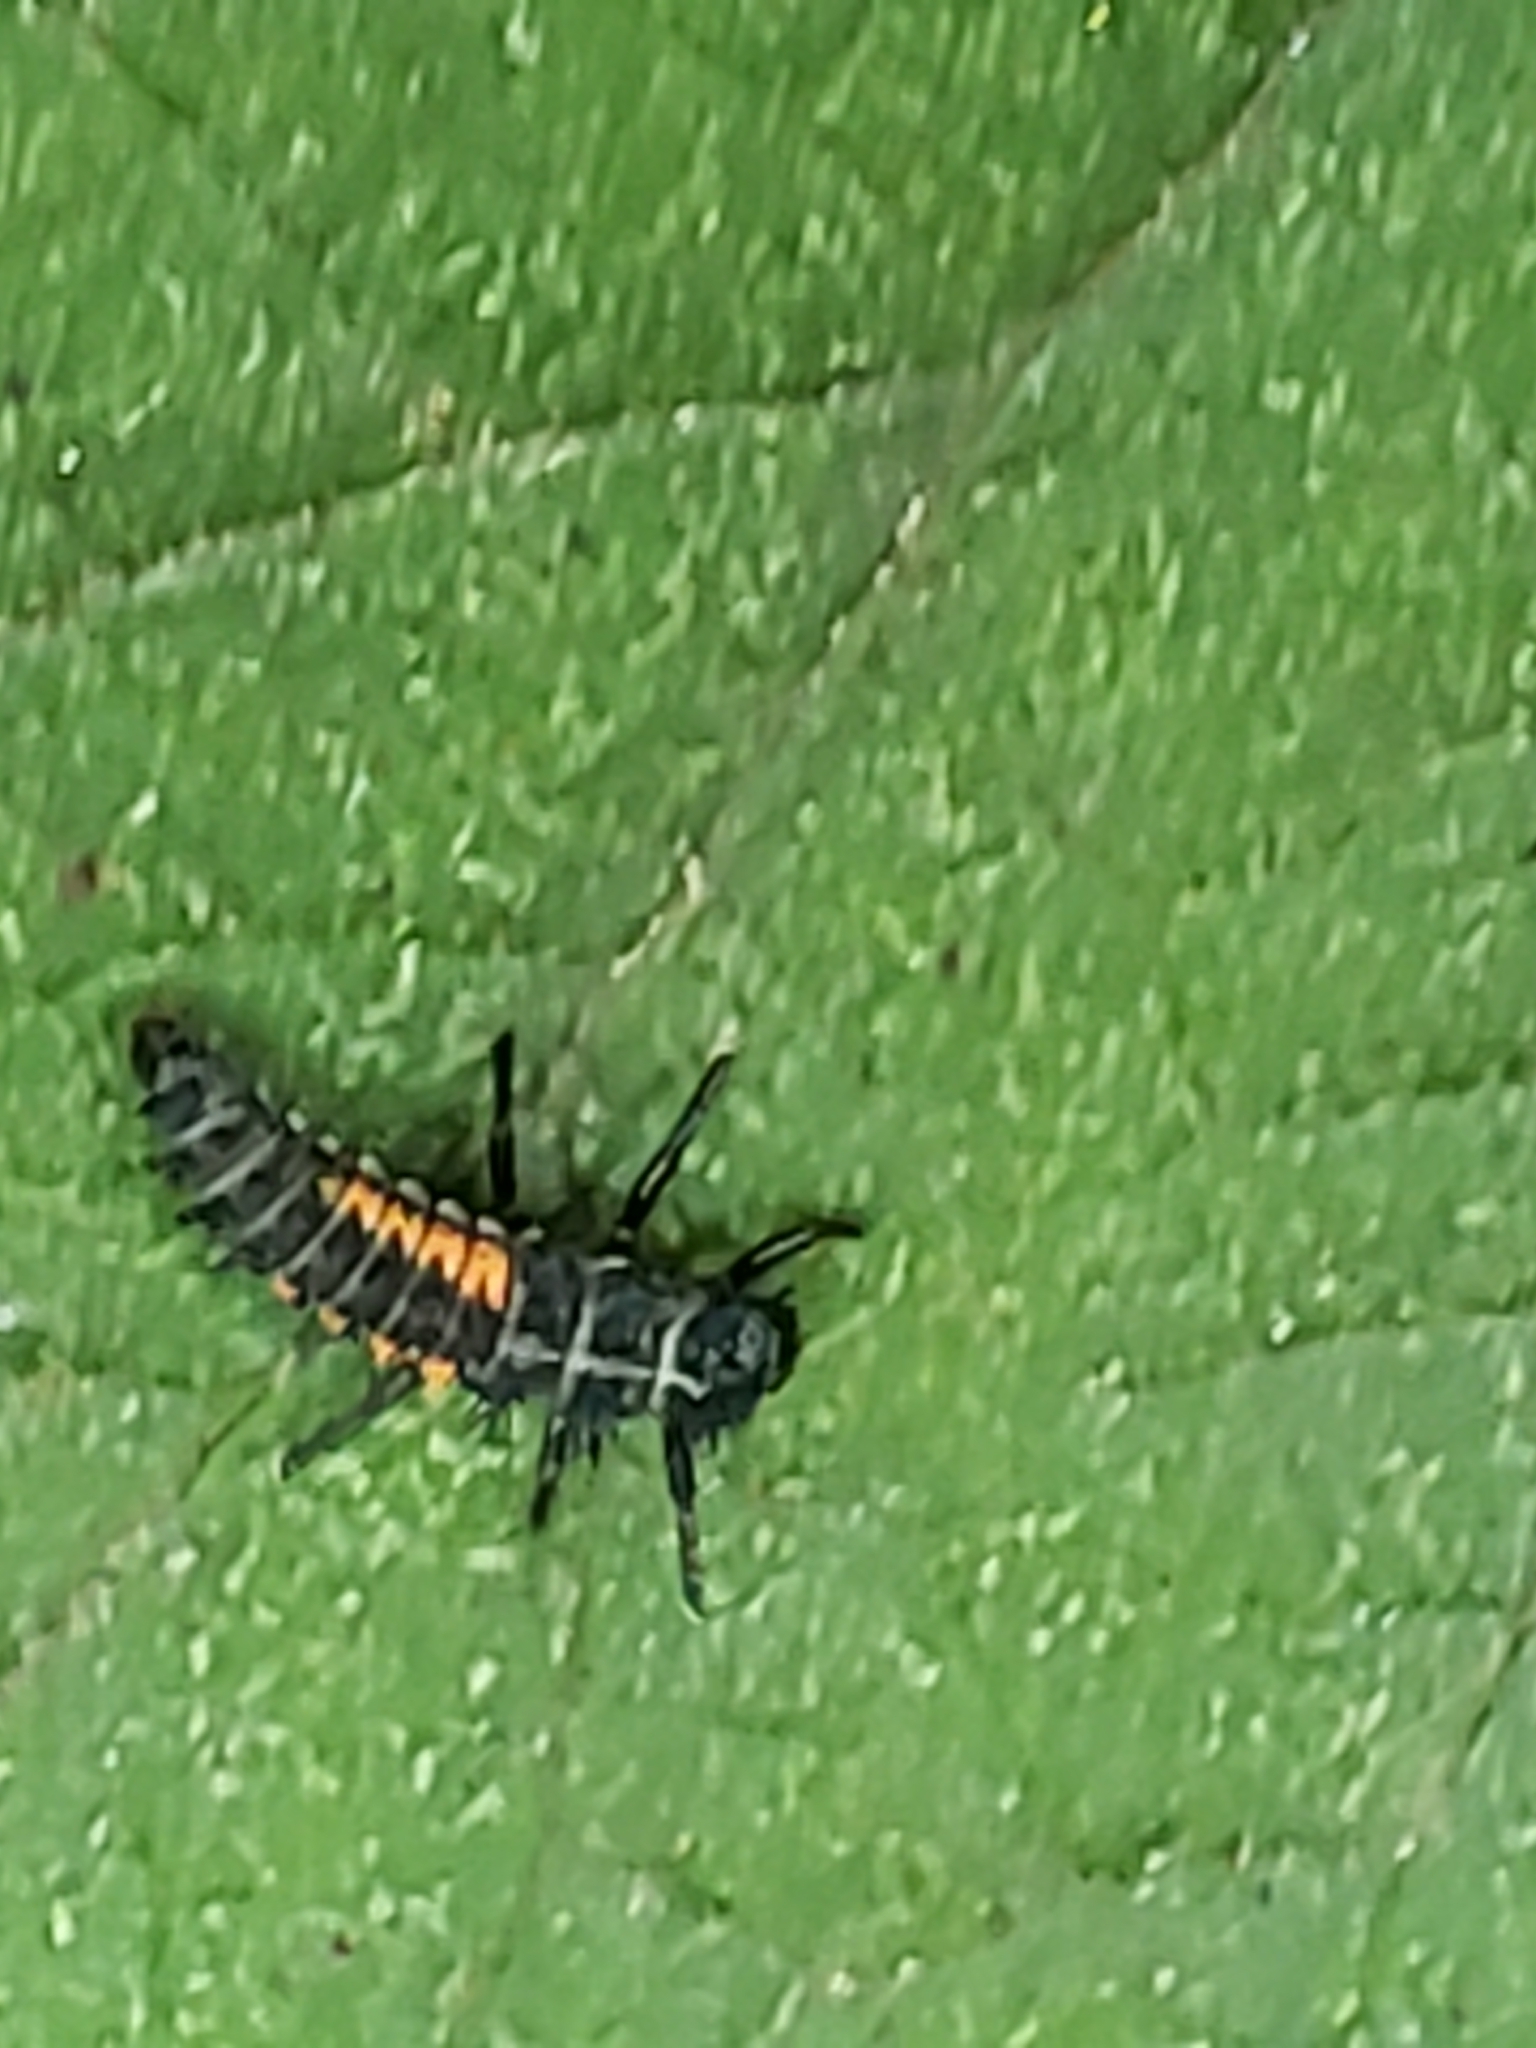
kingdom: Animalia
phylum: Arthropoda
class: Insecta
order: Coleoptera
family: Coccinellidae
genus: Harmonia
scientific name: Harmonia axyridis
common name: Harlequin ladybird
